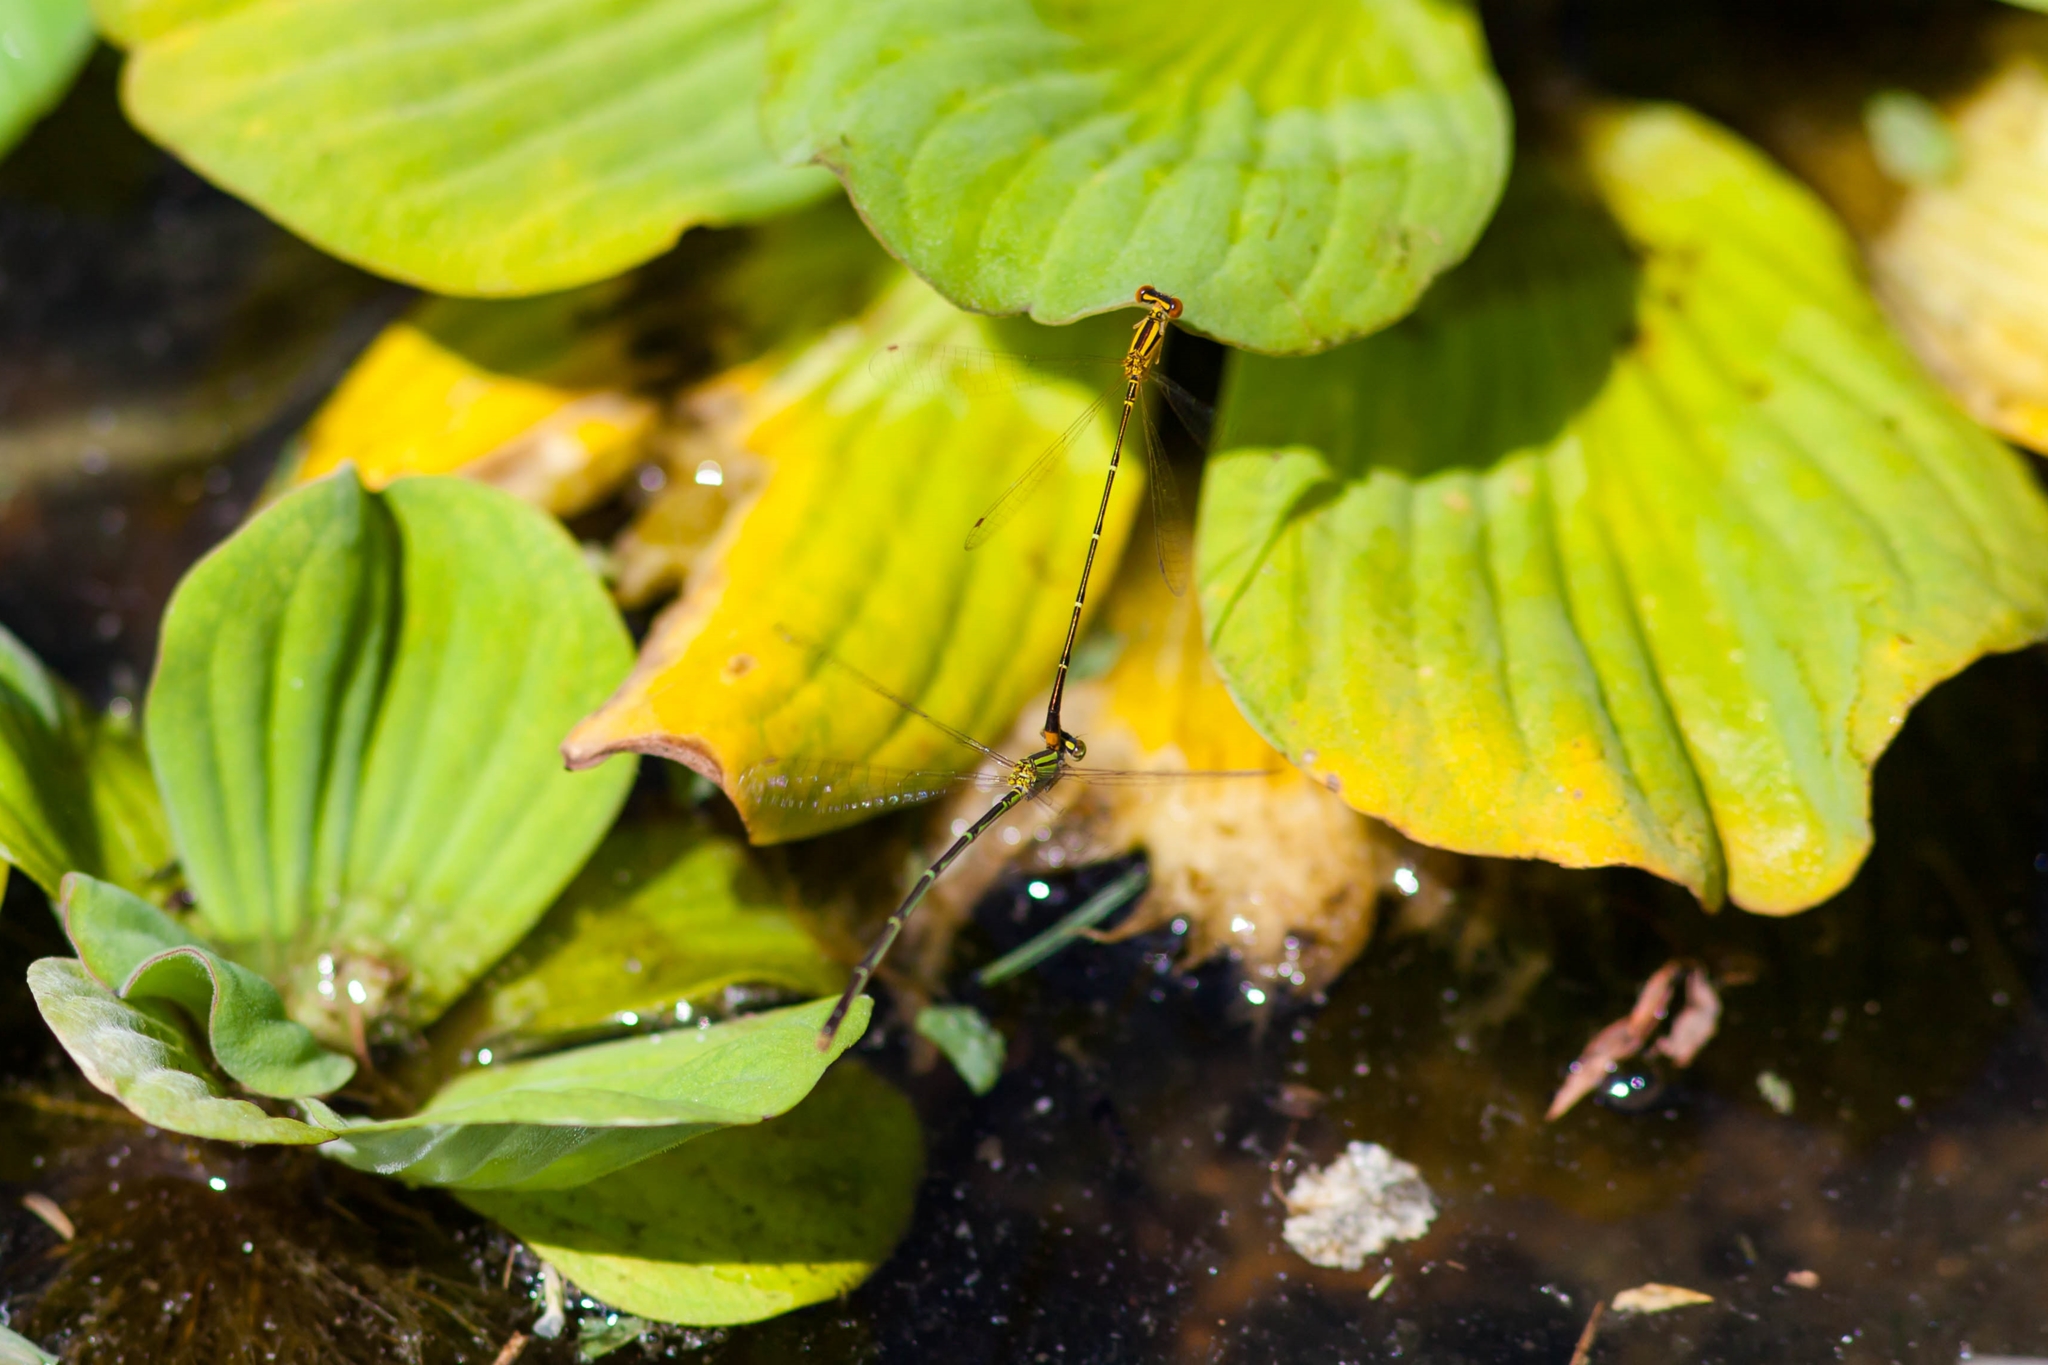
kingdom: Animalia
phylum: Arthropoda
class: Insecta
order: Odonata
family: Coenagrionidae
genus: Enallagma
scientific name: Enallagma signatum
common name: Orange bluet
